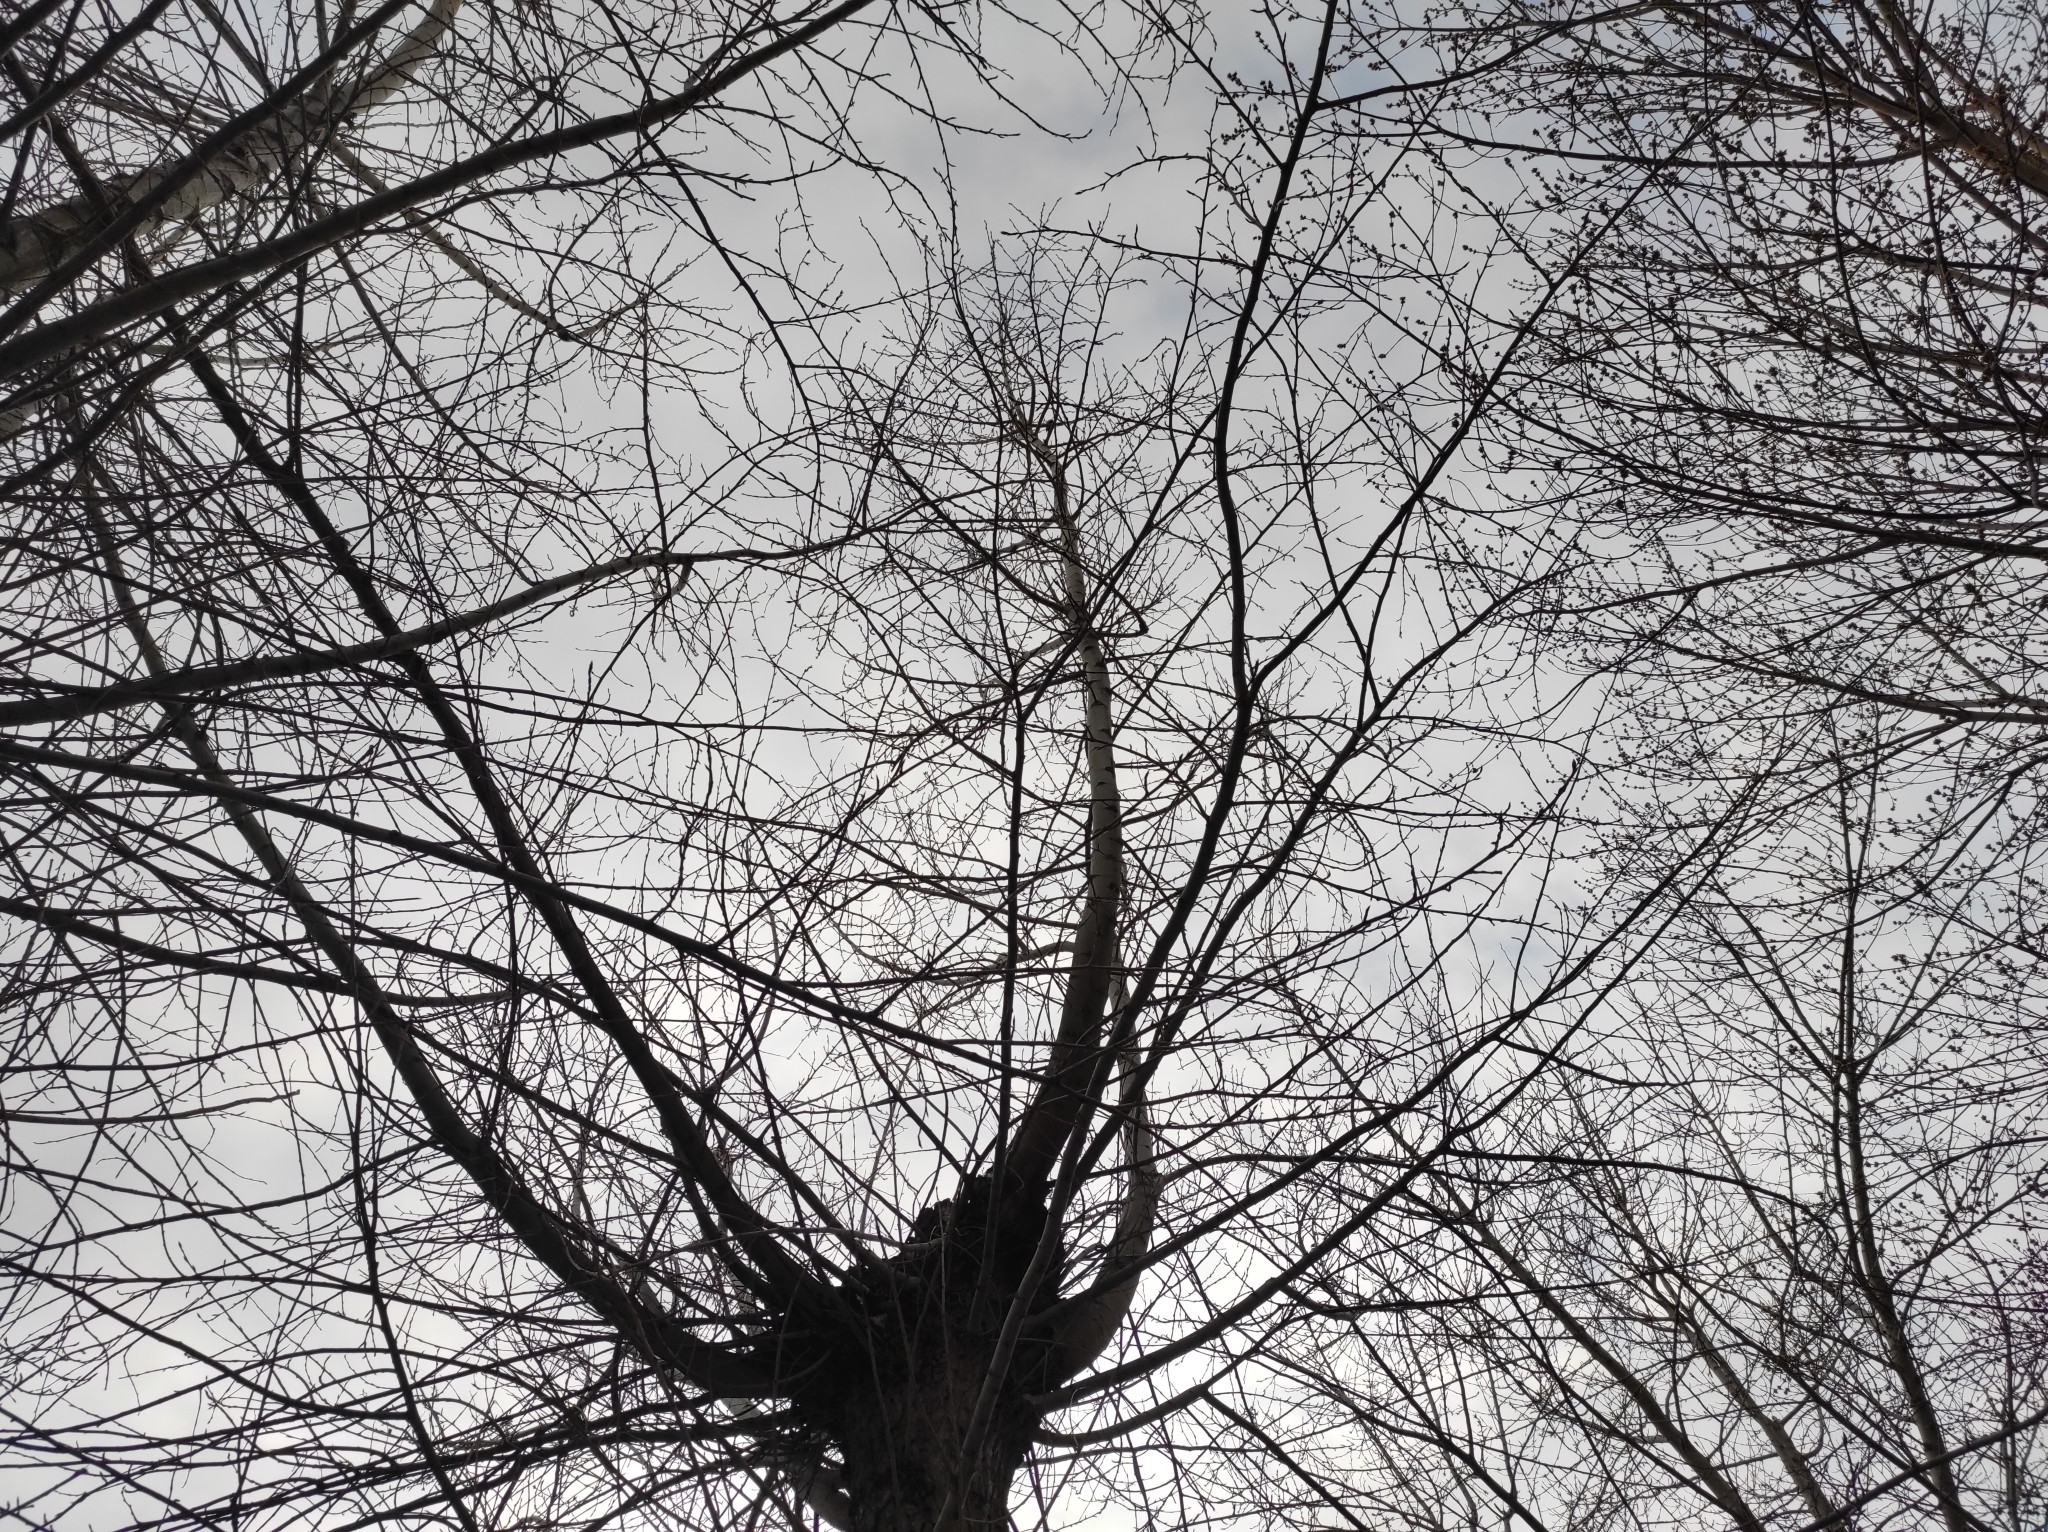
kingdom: Animalia
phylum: Chordata
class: Aves
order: Passeriformes
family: Paridae
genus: Parus
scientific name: Parus major
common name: Great tit
